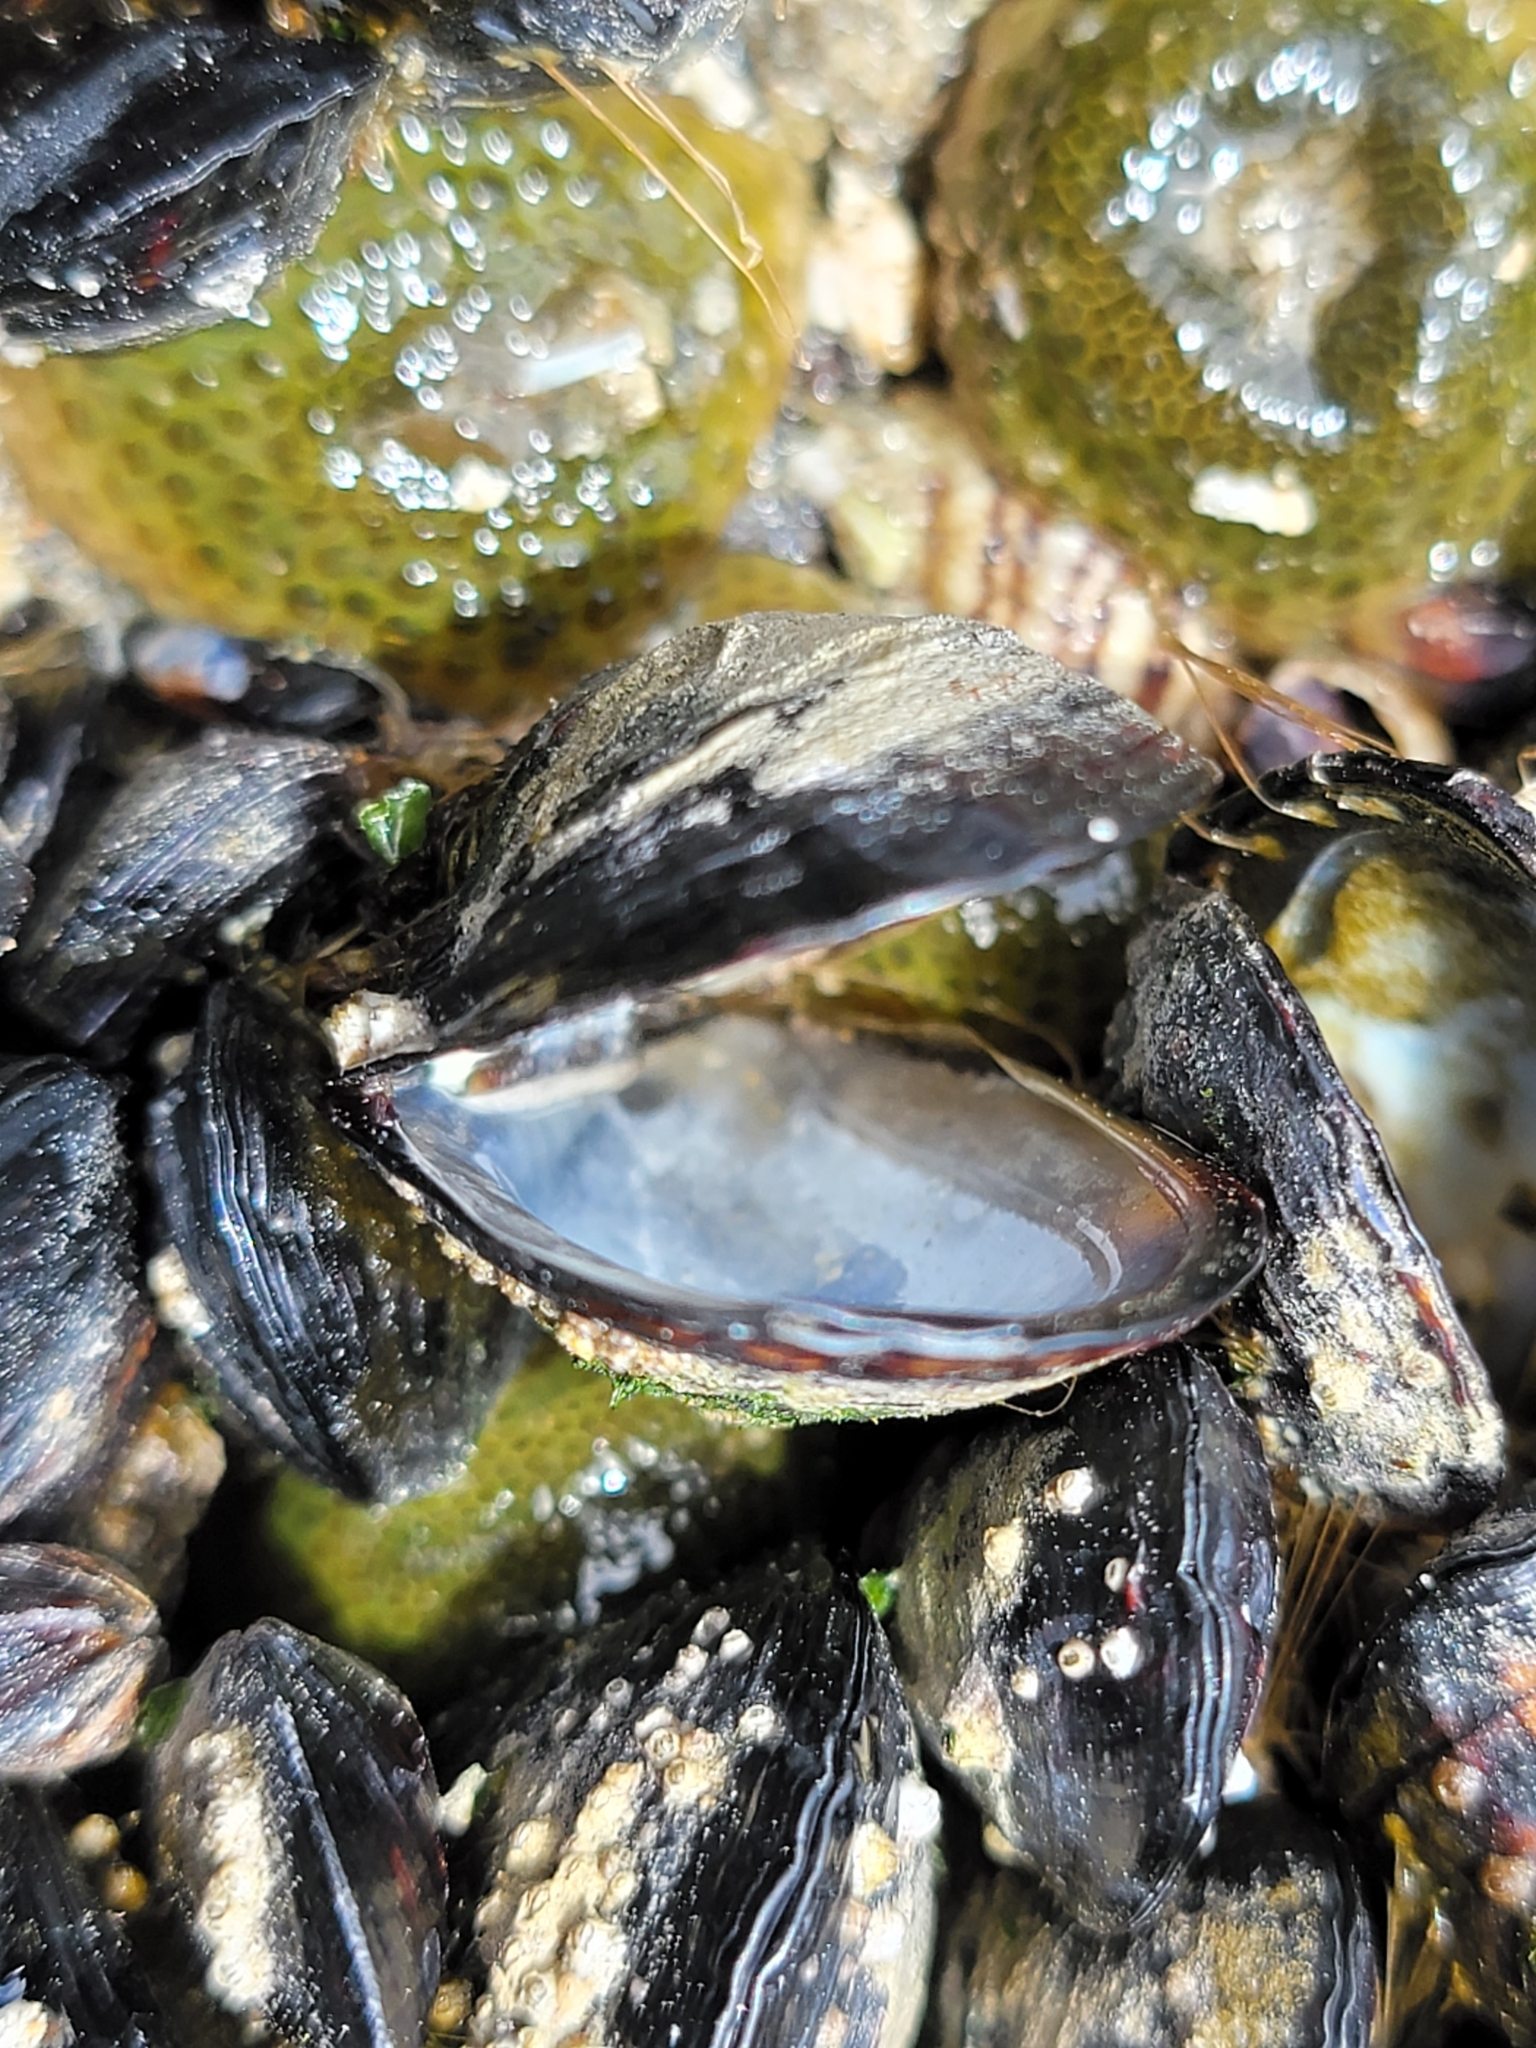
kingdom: Animalia
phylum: Mollusca
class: Bivalvia
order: Mytilida
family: Mytilidae
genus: Mytilus
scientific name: Mytilus californianus
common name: California mussel
